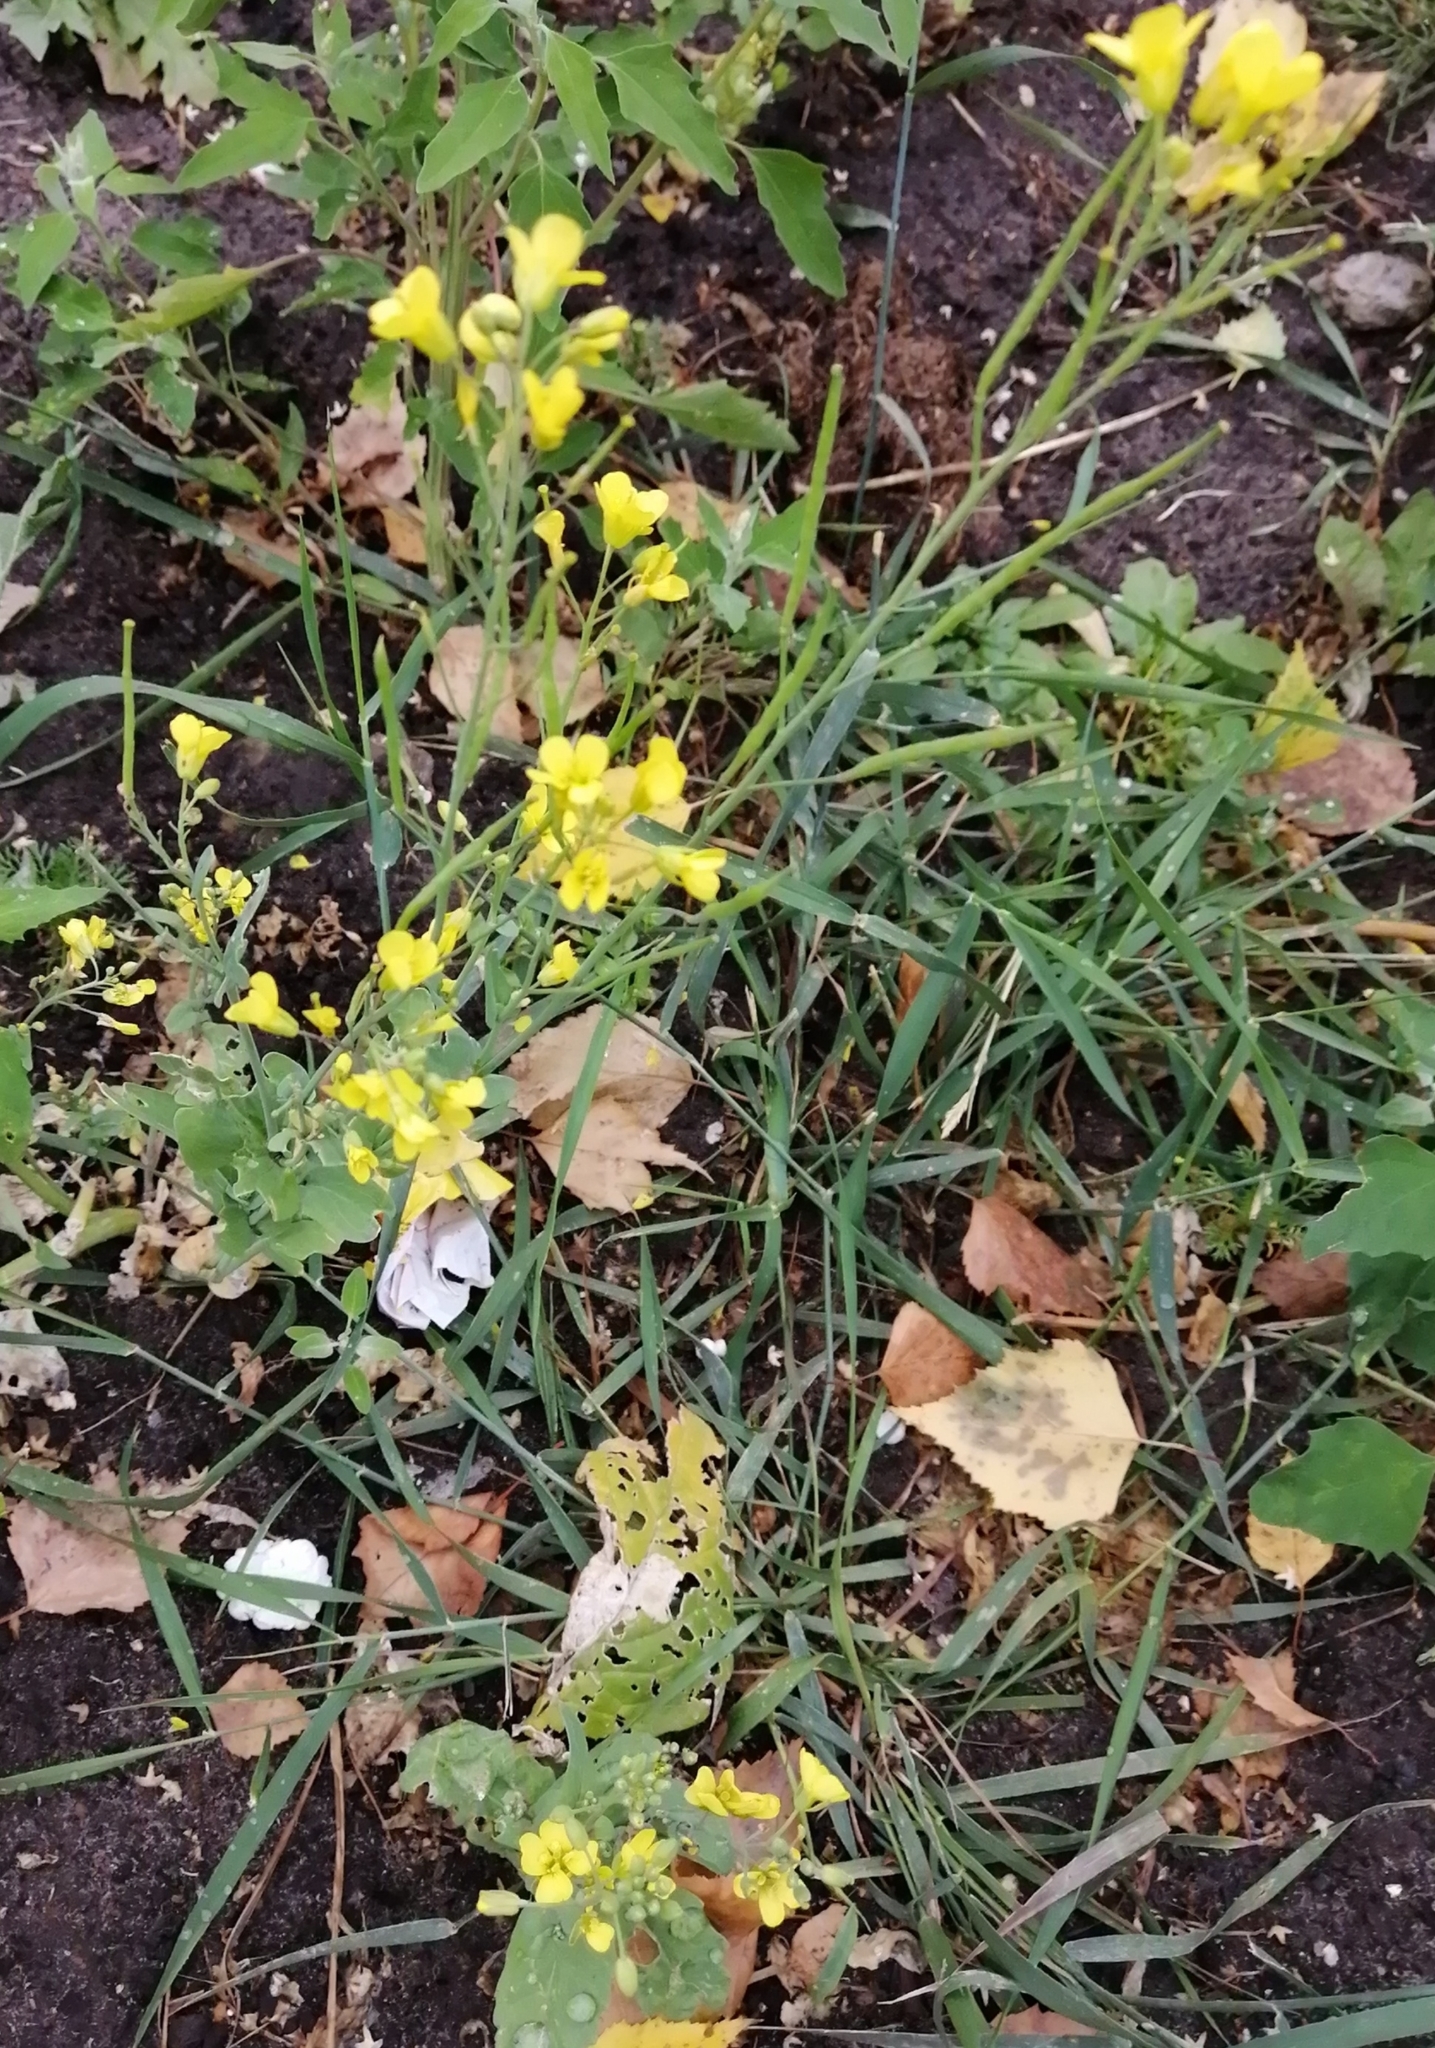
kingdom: Plantae
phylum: Tracheophyta
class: Magnoliopsida
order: Brassicales
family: Brassicaceae
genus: Sisymbrium
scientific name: Sisymbrium loeselii
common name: False london-rocket
